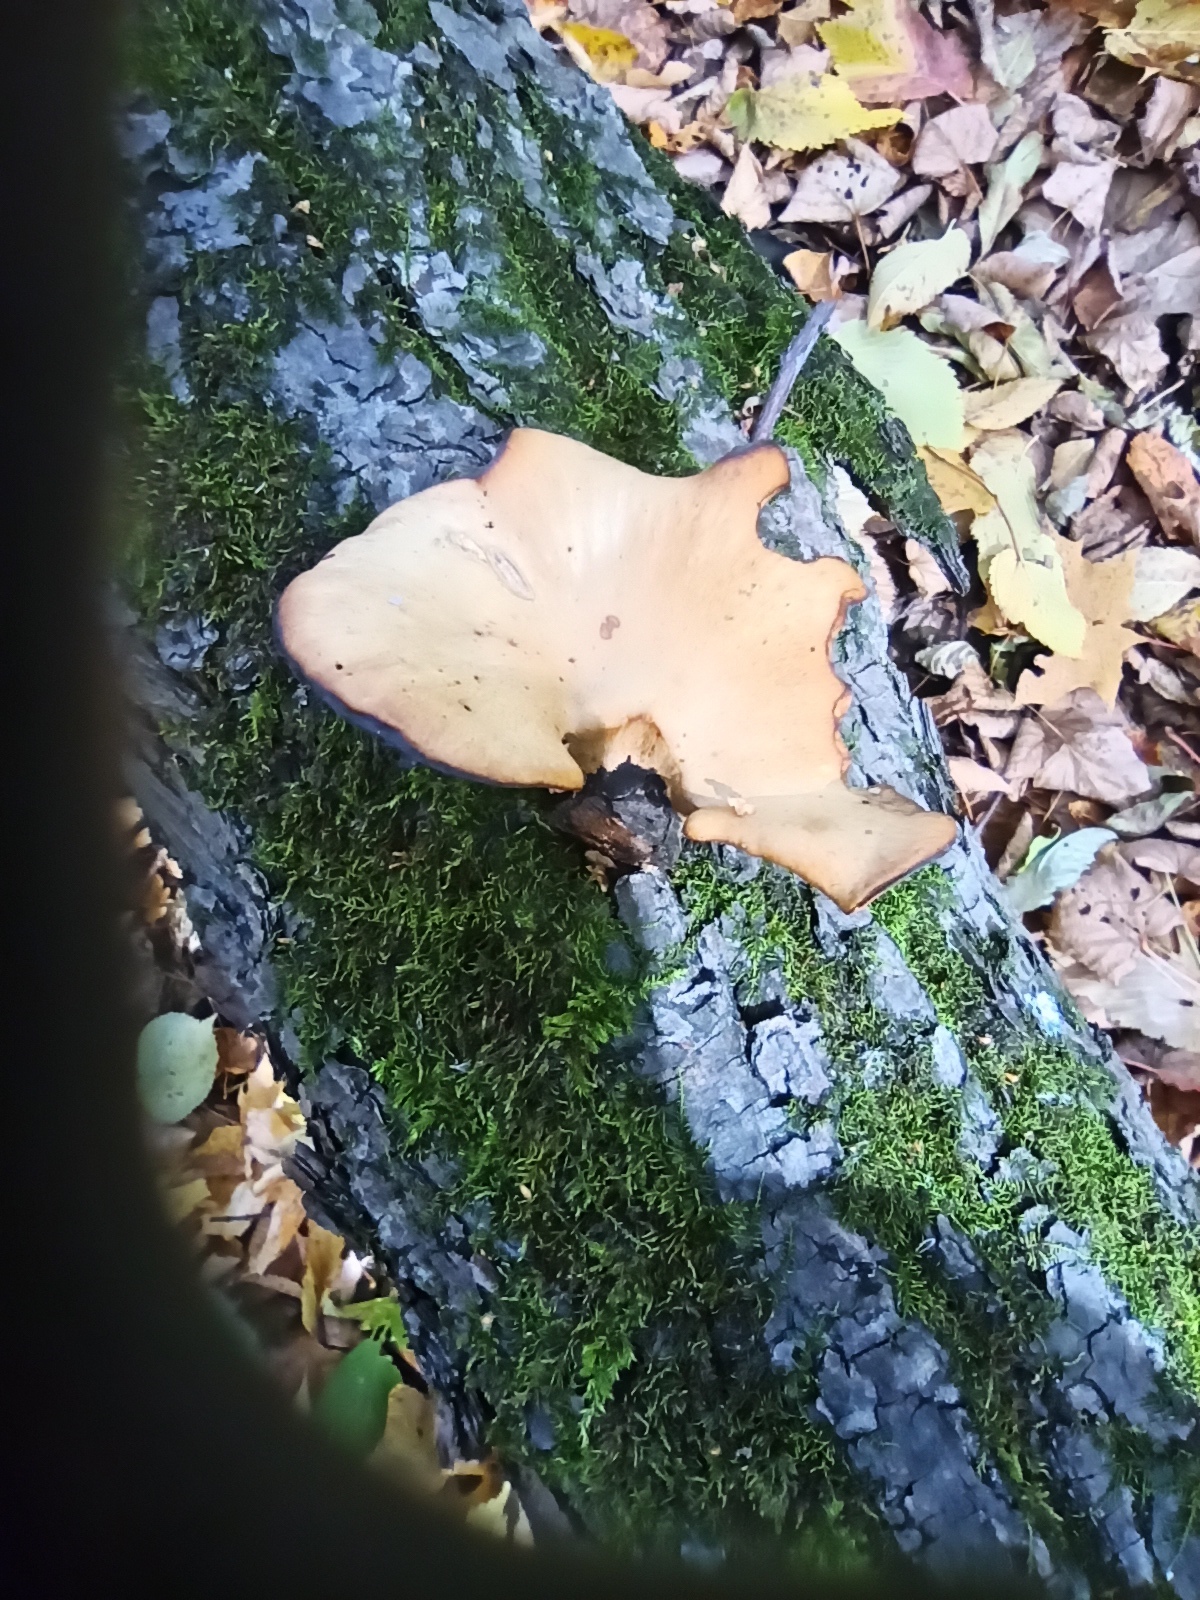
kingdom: Fungi
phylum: Basidiomycota
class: Agaricomycetes
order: Polyporales
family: Polyporaceae
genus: Cerioporus
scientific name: Cerioporus varius
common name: Elegant polypore
